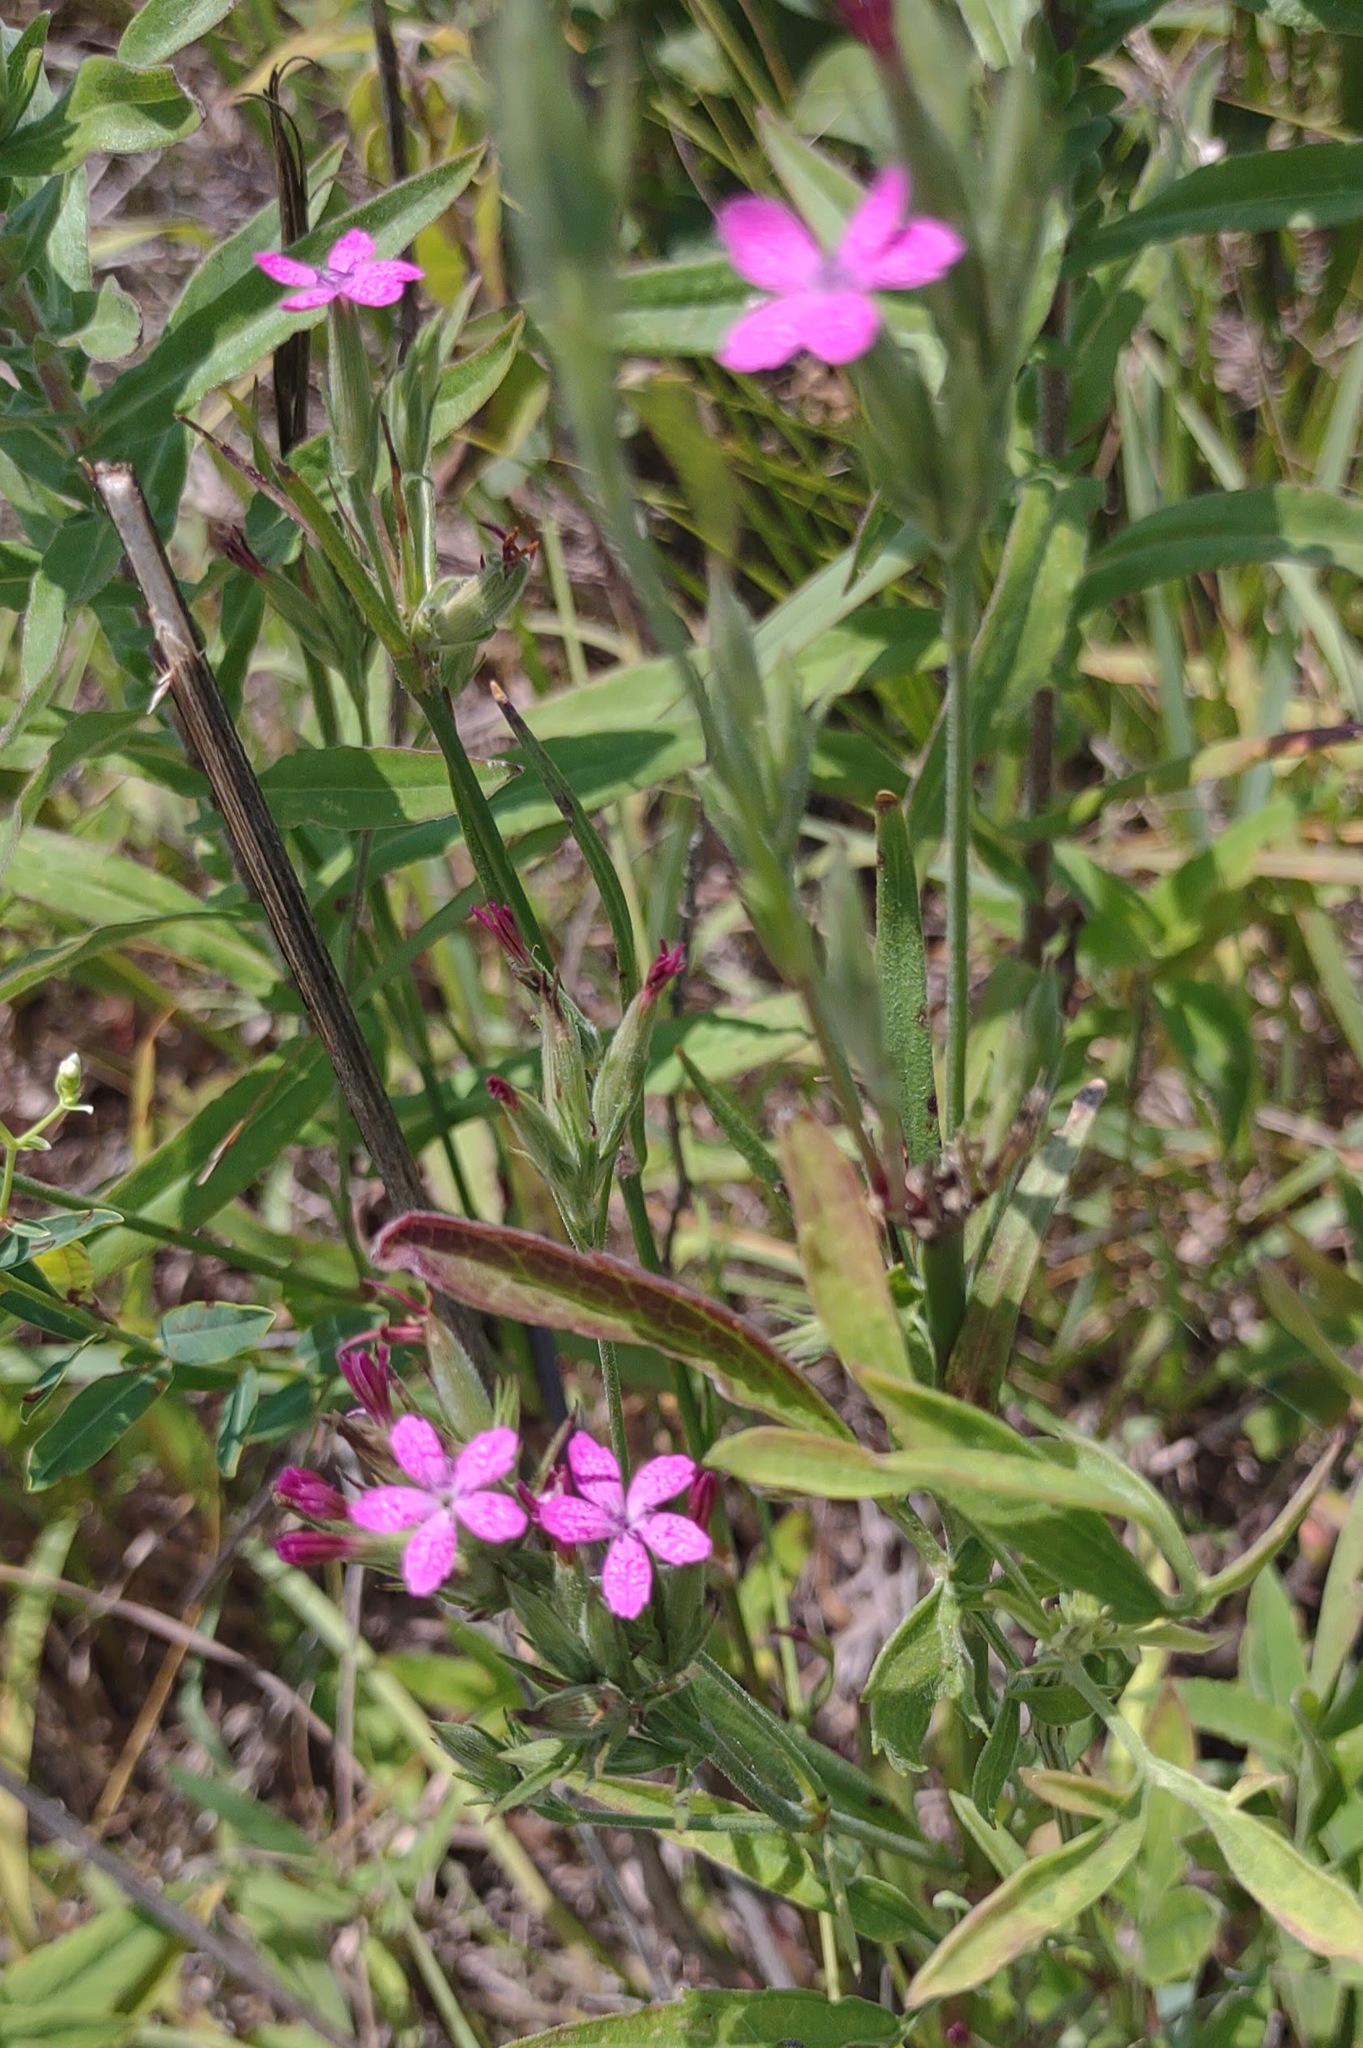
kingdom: Plantae
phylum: Tracheophyta
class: Magnoliopsida
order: Caryophyllales
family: Caryophyllaceae
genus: Dianthus
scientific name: Dianthus armeria
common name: Deptford pink
